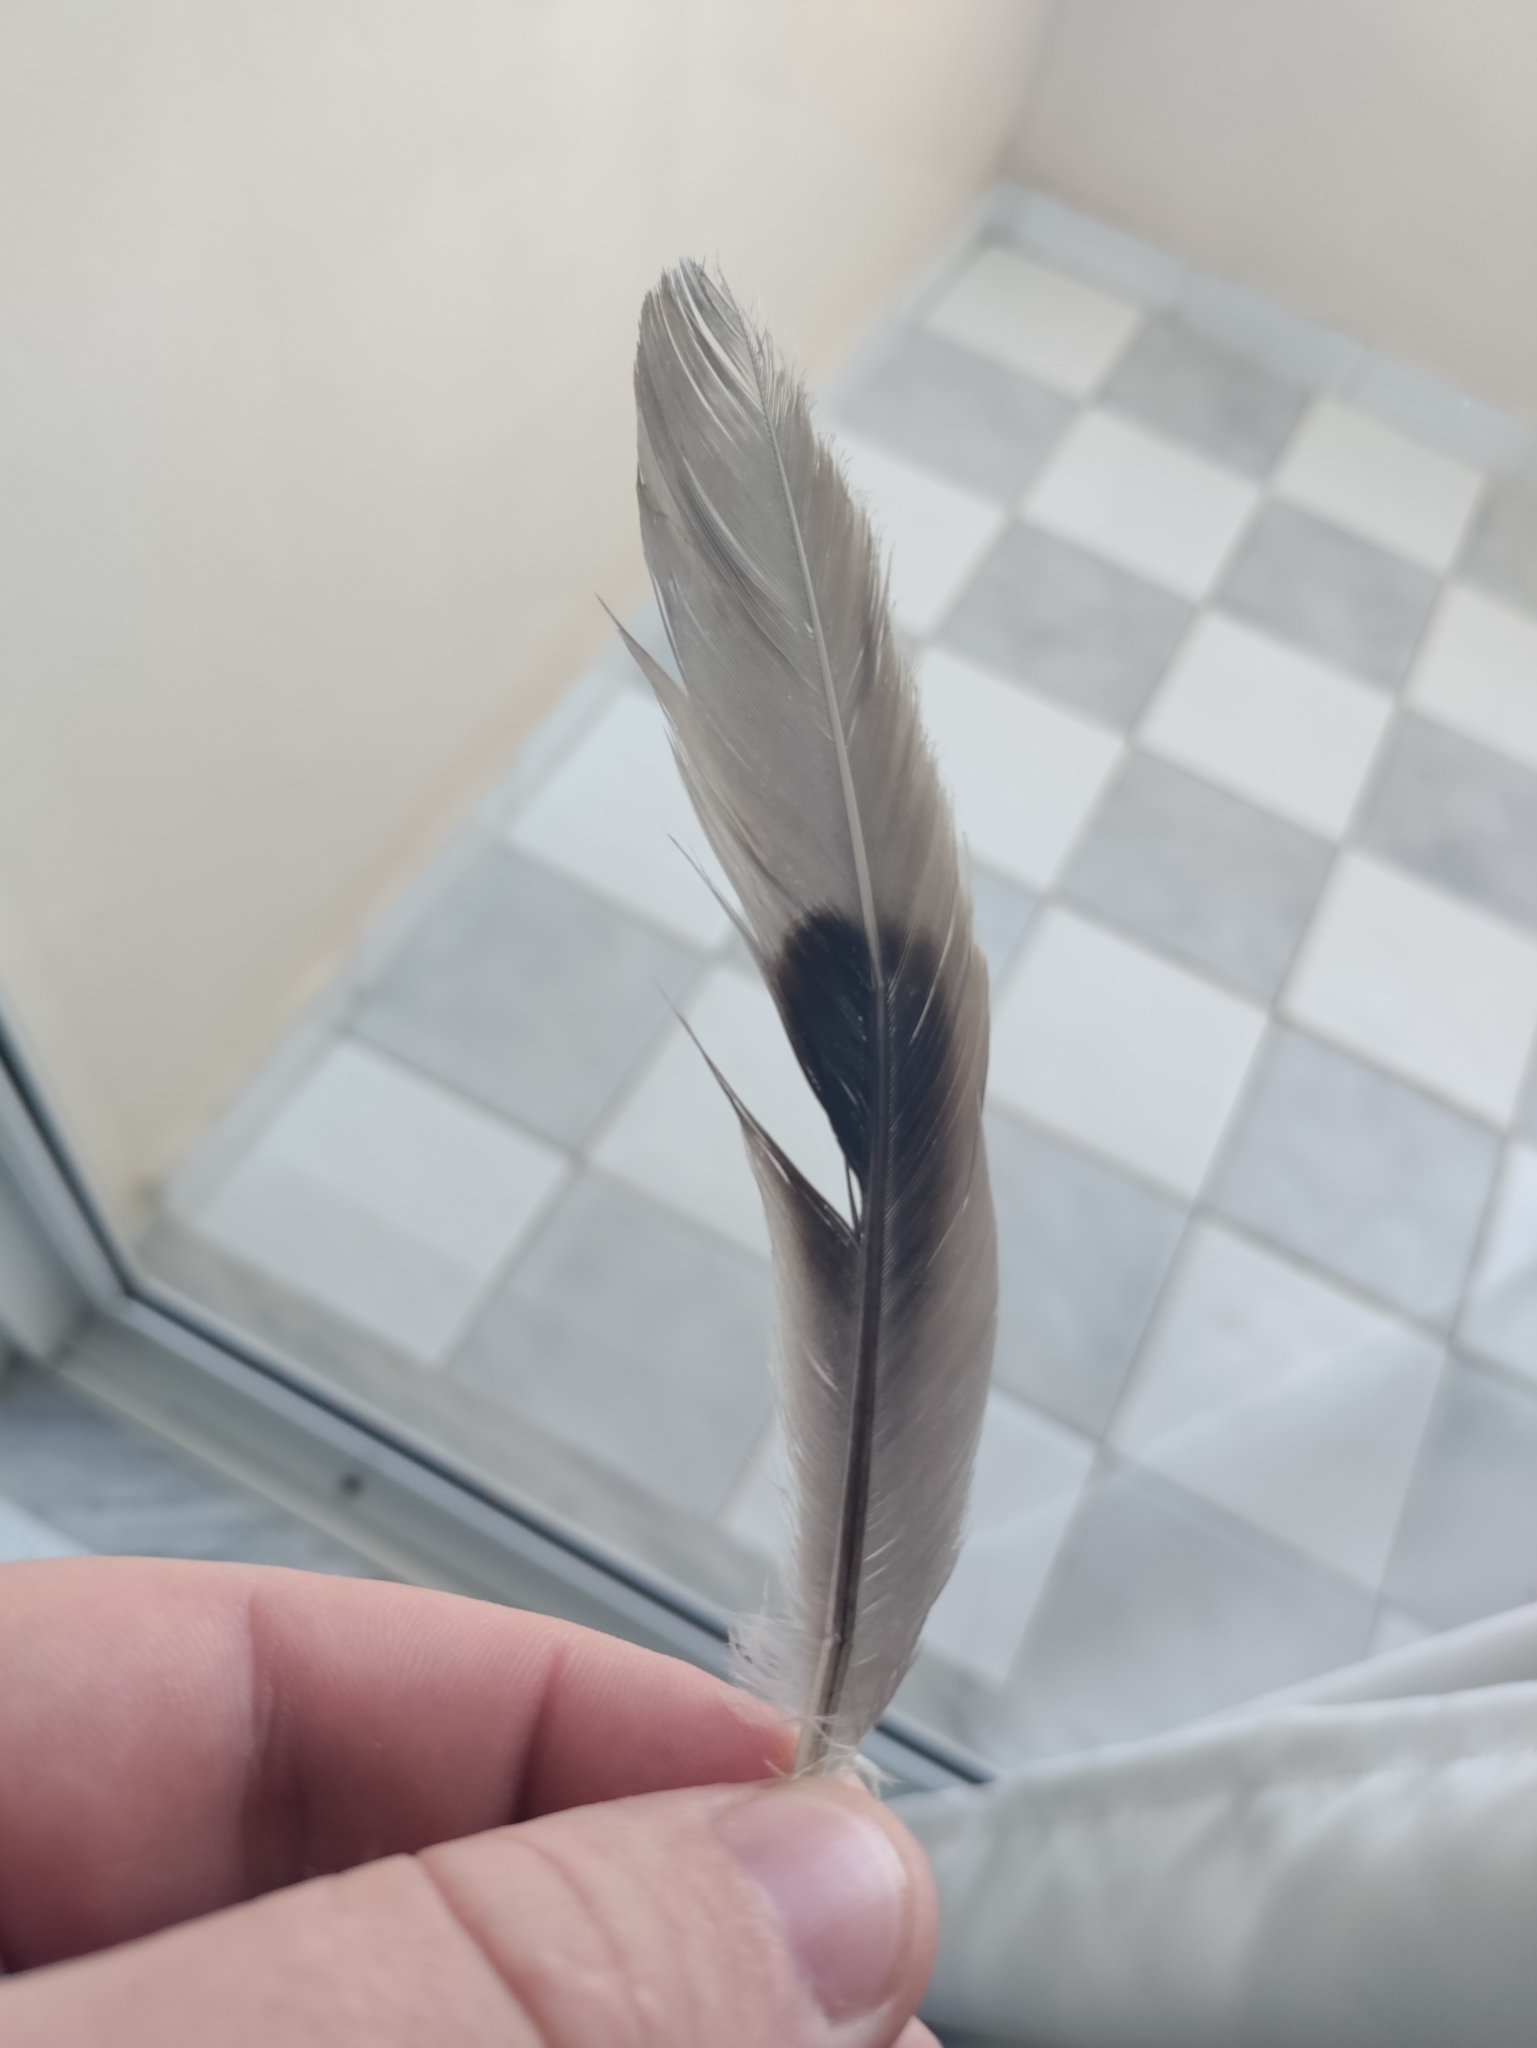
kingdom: Animalia
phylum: Chordata
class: Aves
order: Columbiformes
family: Columbidae
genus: Streptopelia
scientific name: Streptopelia decaocto
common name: Eurasian collared dove
